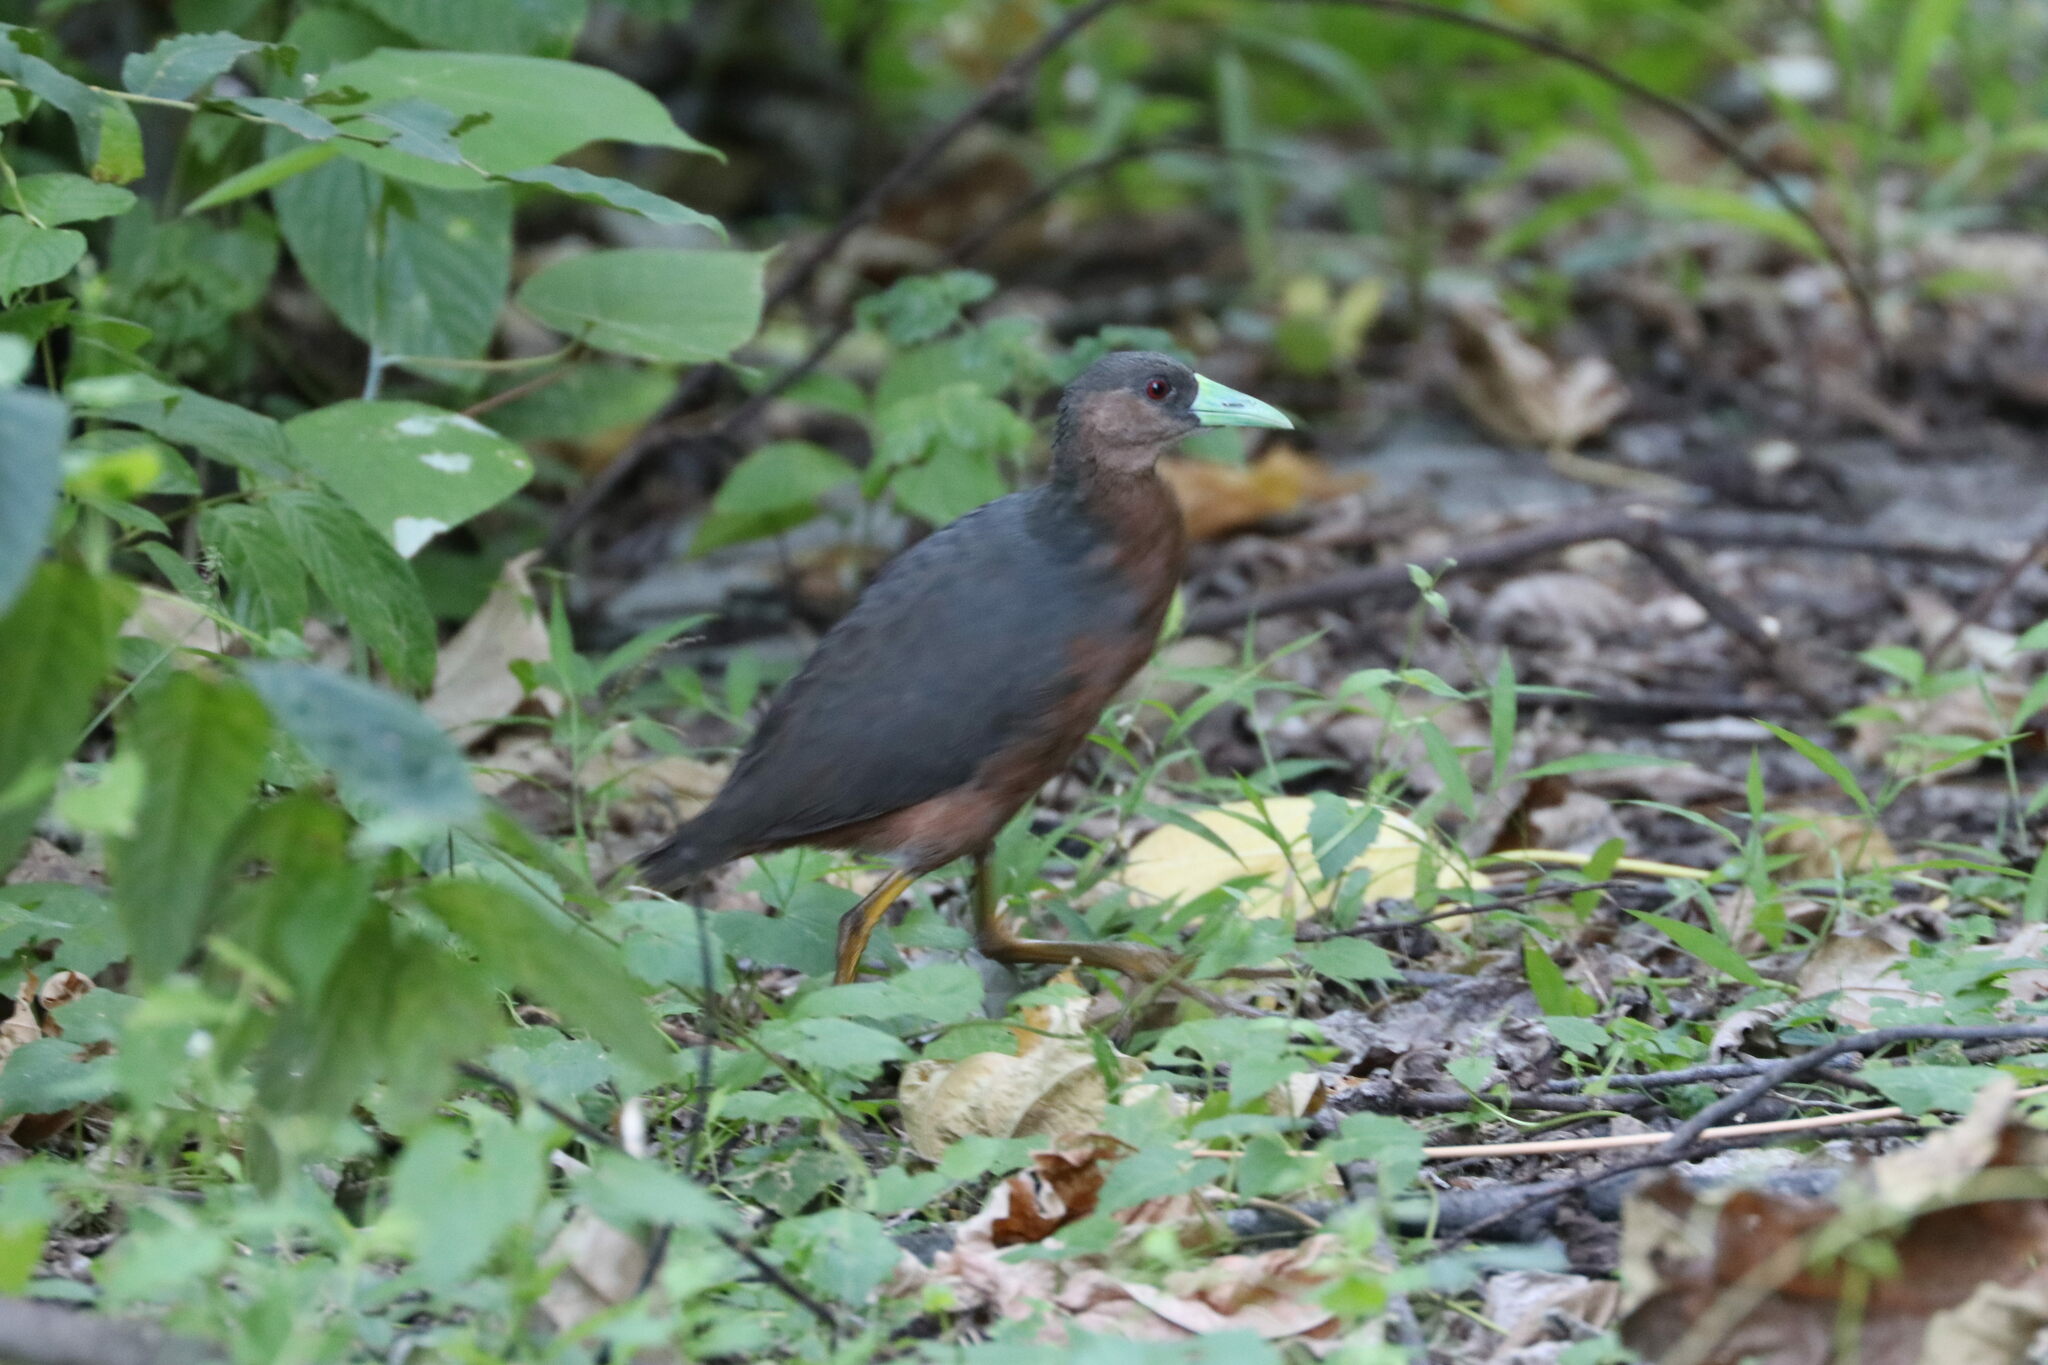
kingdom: Animalia
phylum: Chordata
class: Aves
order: Gruiformes
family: Rallidae
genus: Amaurornis
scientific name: Amaurornis isabellina
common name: Isabelline bush-hen
